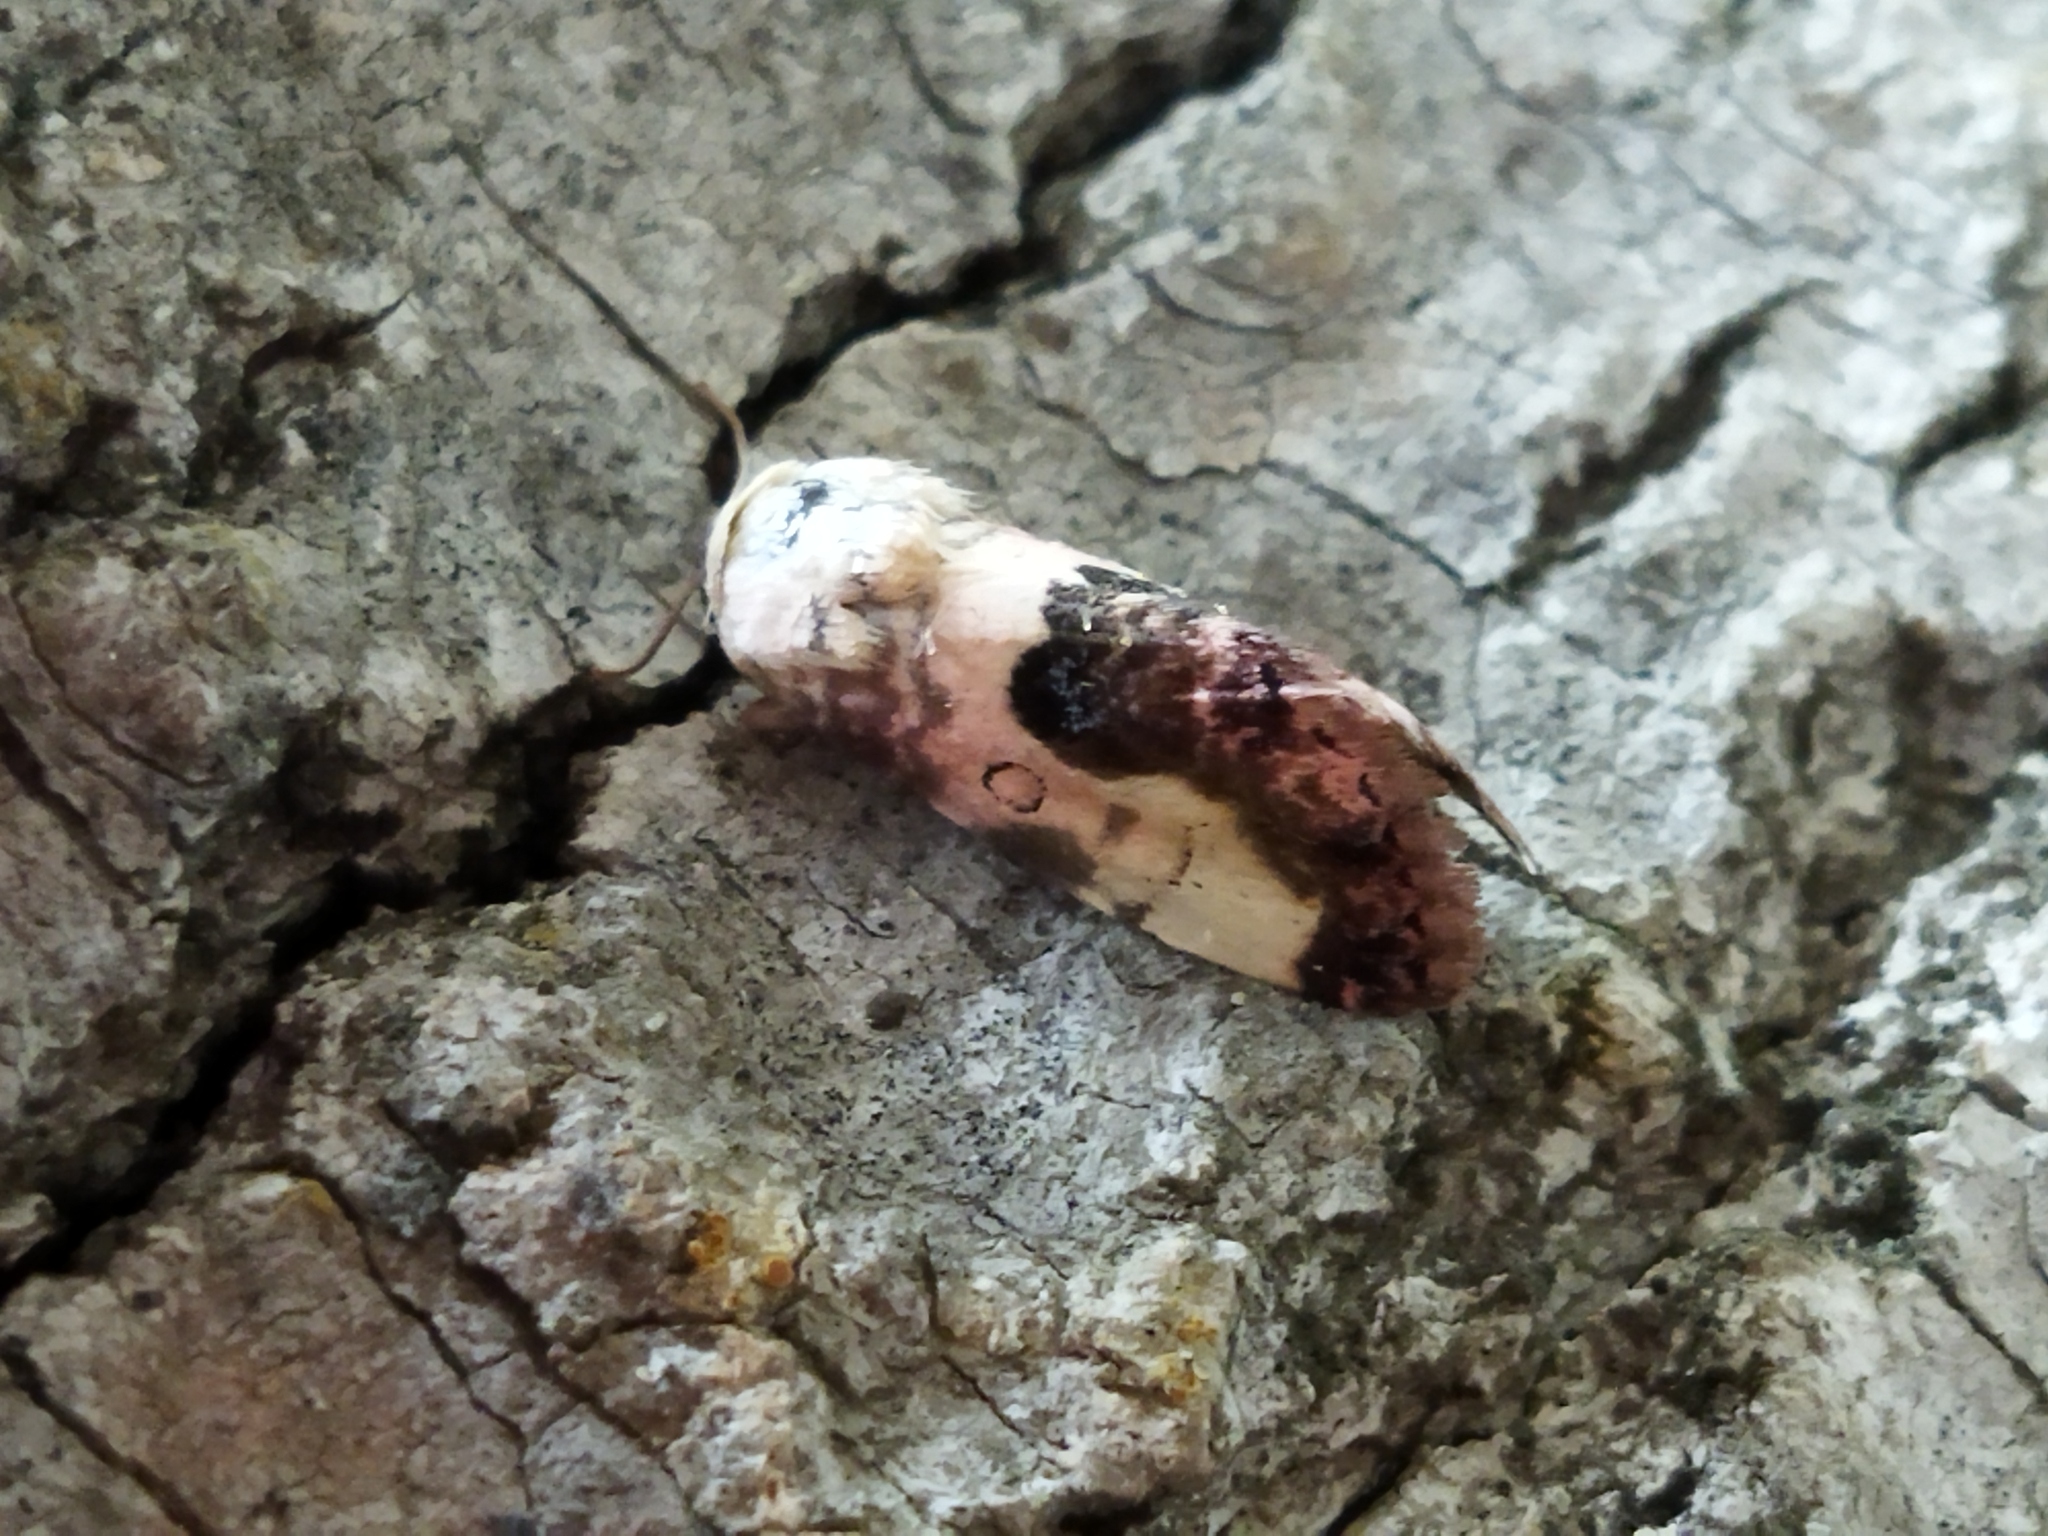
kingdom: Animalia
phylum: Arthropoda
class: Insecta
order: Lepidoptera
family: Noctuidae
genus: Acontia
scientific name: Acontia titania
